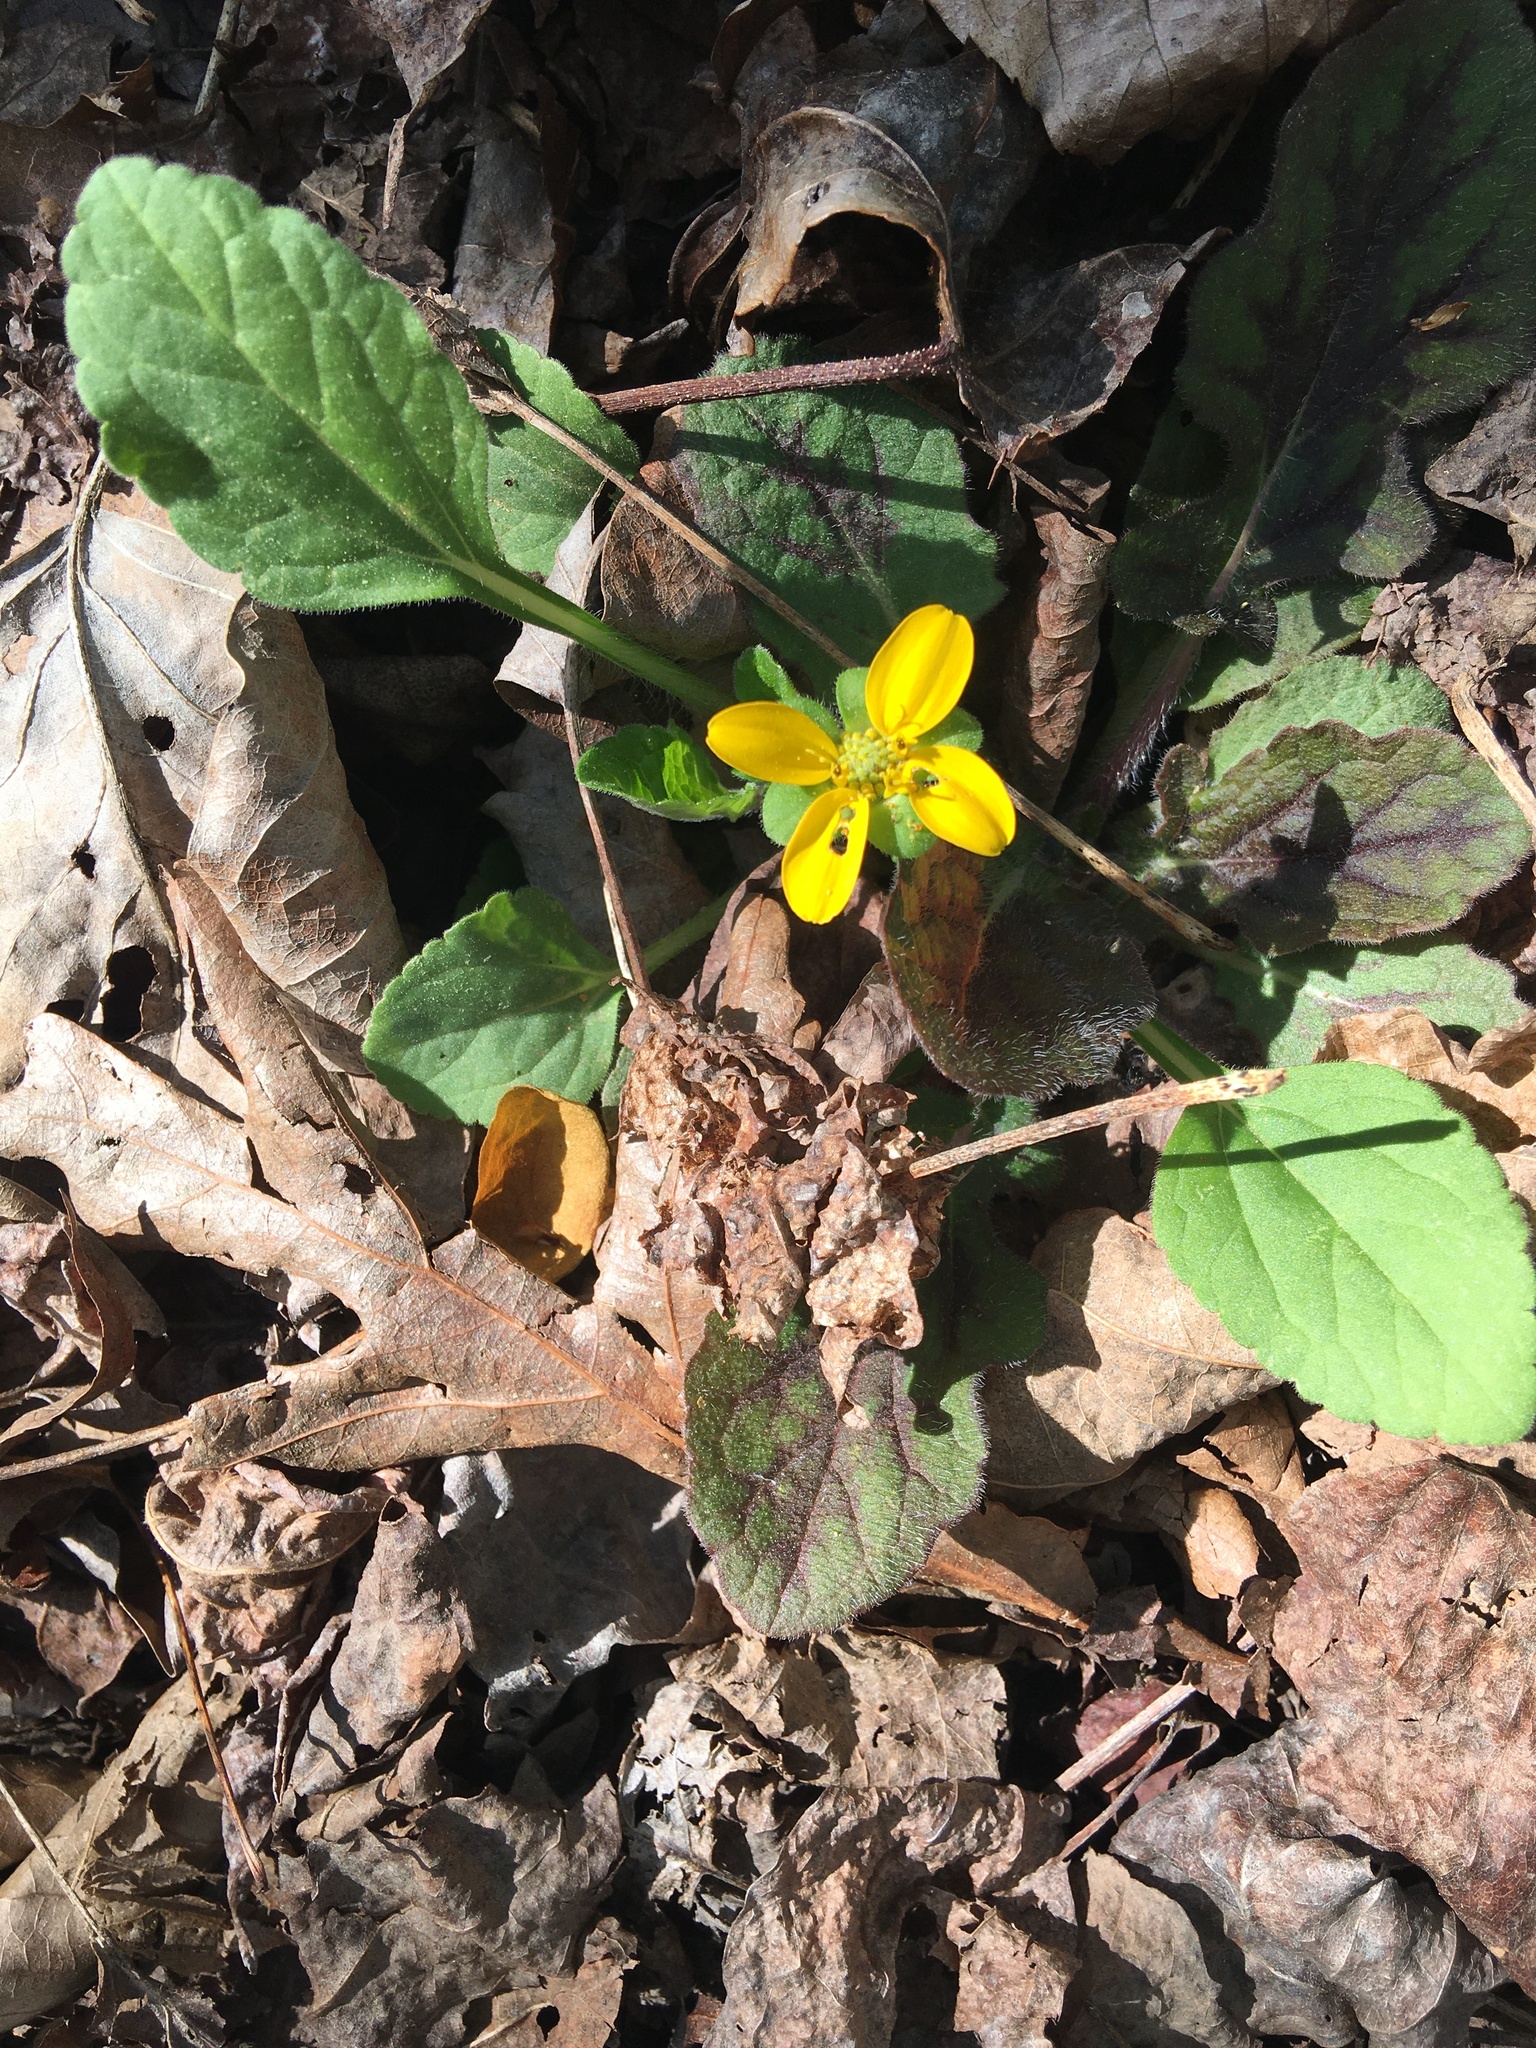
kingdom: Plantae
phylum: Tracheophyta
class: Magnoliopsida
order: Asterales
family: Asteraceae
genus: Chrysogonum
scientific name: Chrysogonum virginianum
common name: Golden-knee
